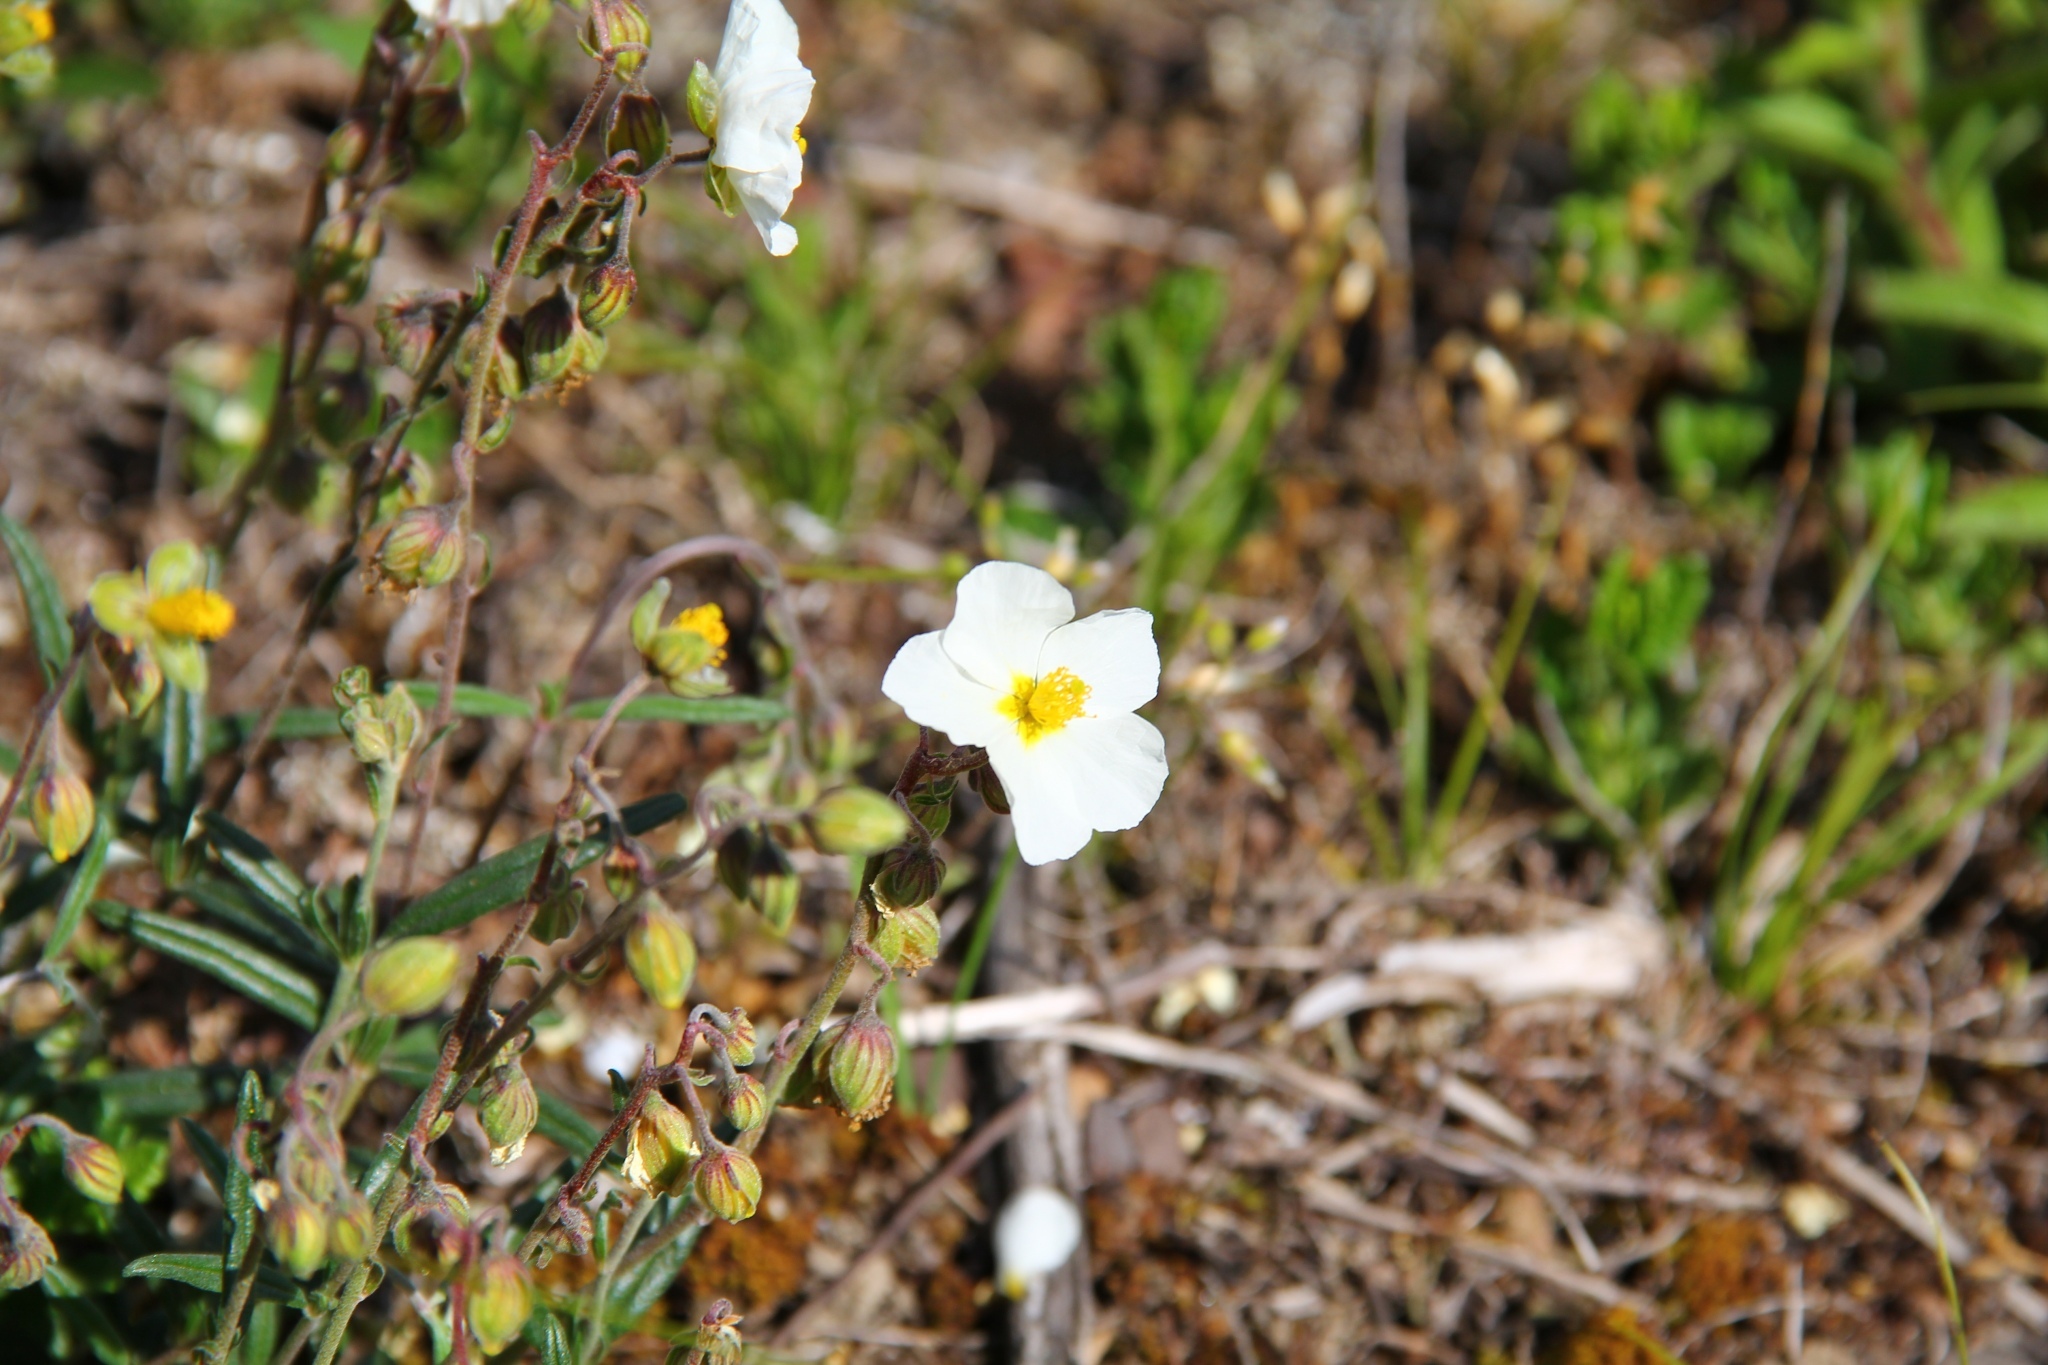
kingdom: Plantae
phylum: Tracheophyta
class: Magnoliopsida
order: Malvales
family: Cistaceae
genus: Helianthemum
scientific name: Helianthemum apenninum
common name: White rock-rose
